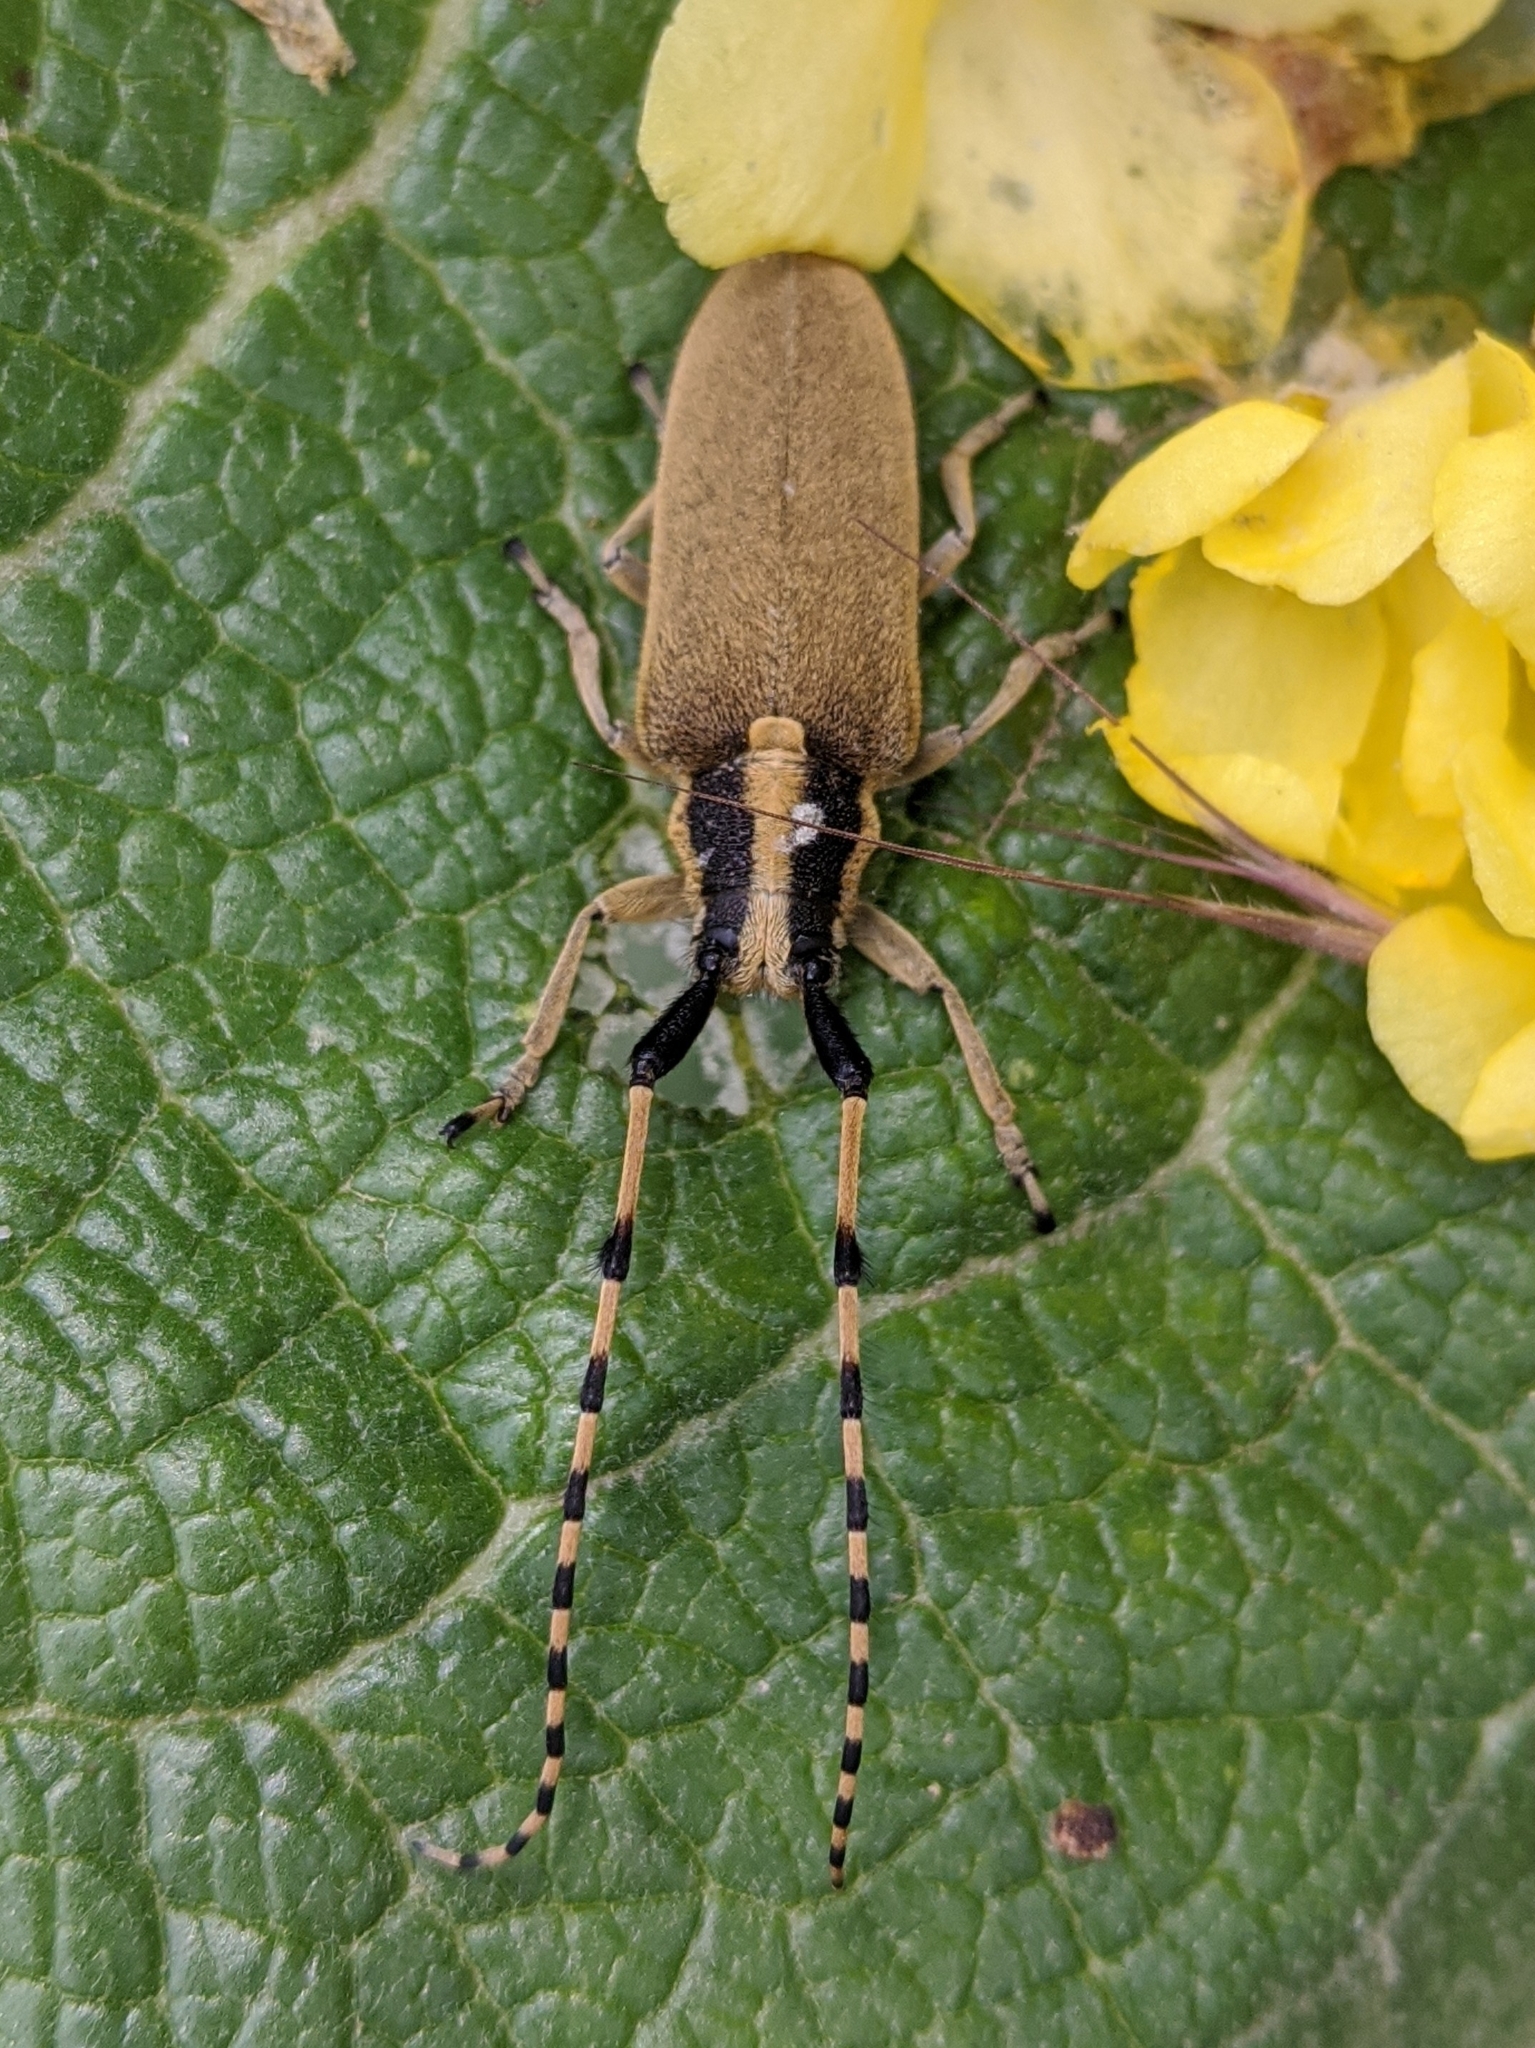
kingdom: Animalia
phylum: Arthropoda
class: Insecta
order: Coleoptera
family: Cerambycidae
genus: Agapanthia
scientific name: Agapanthia kirbyi
